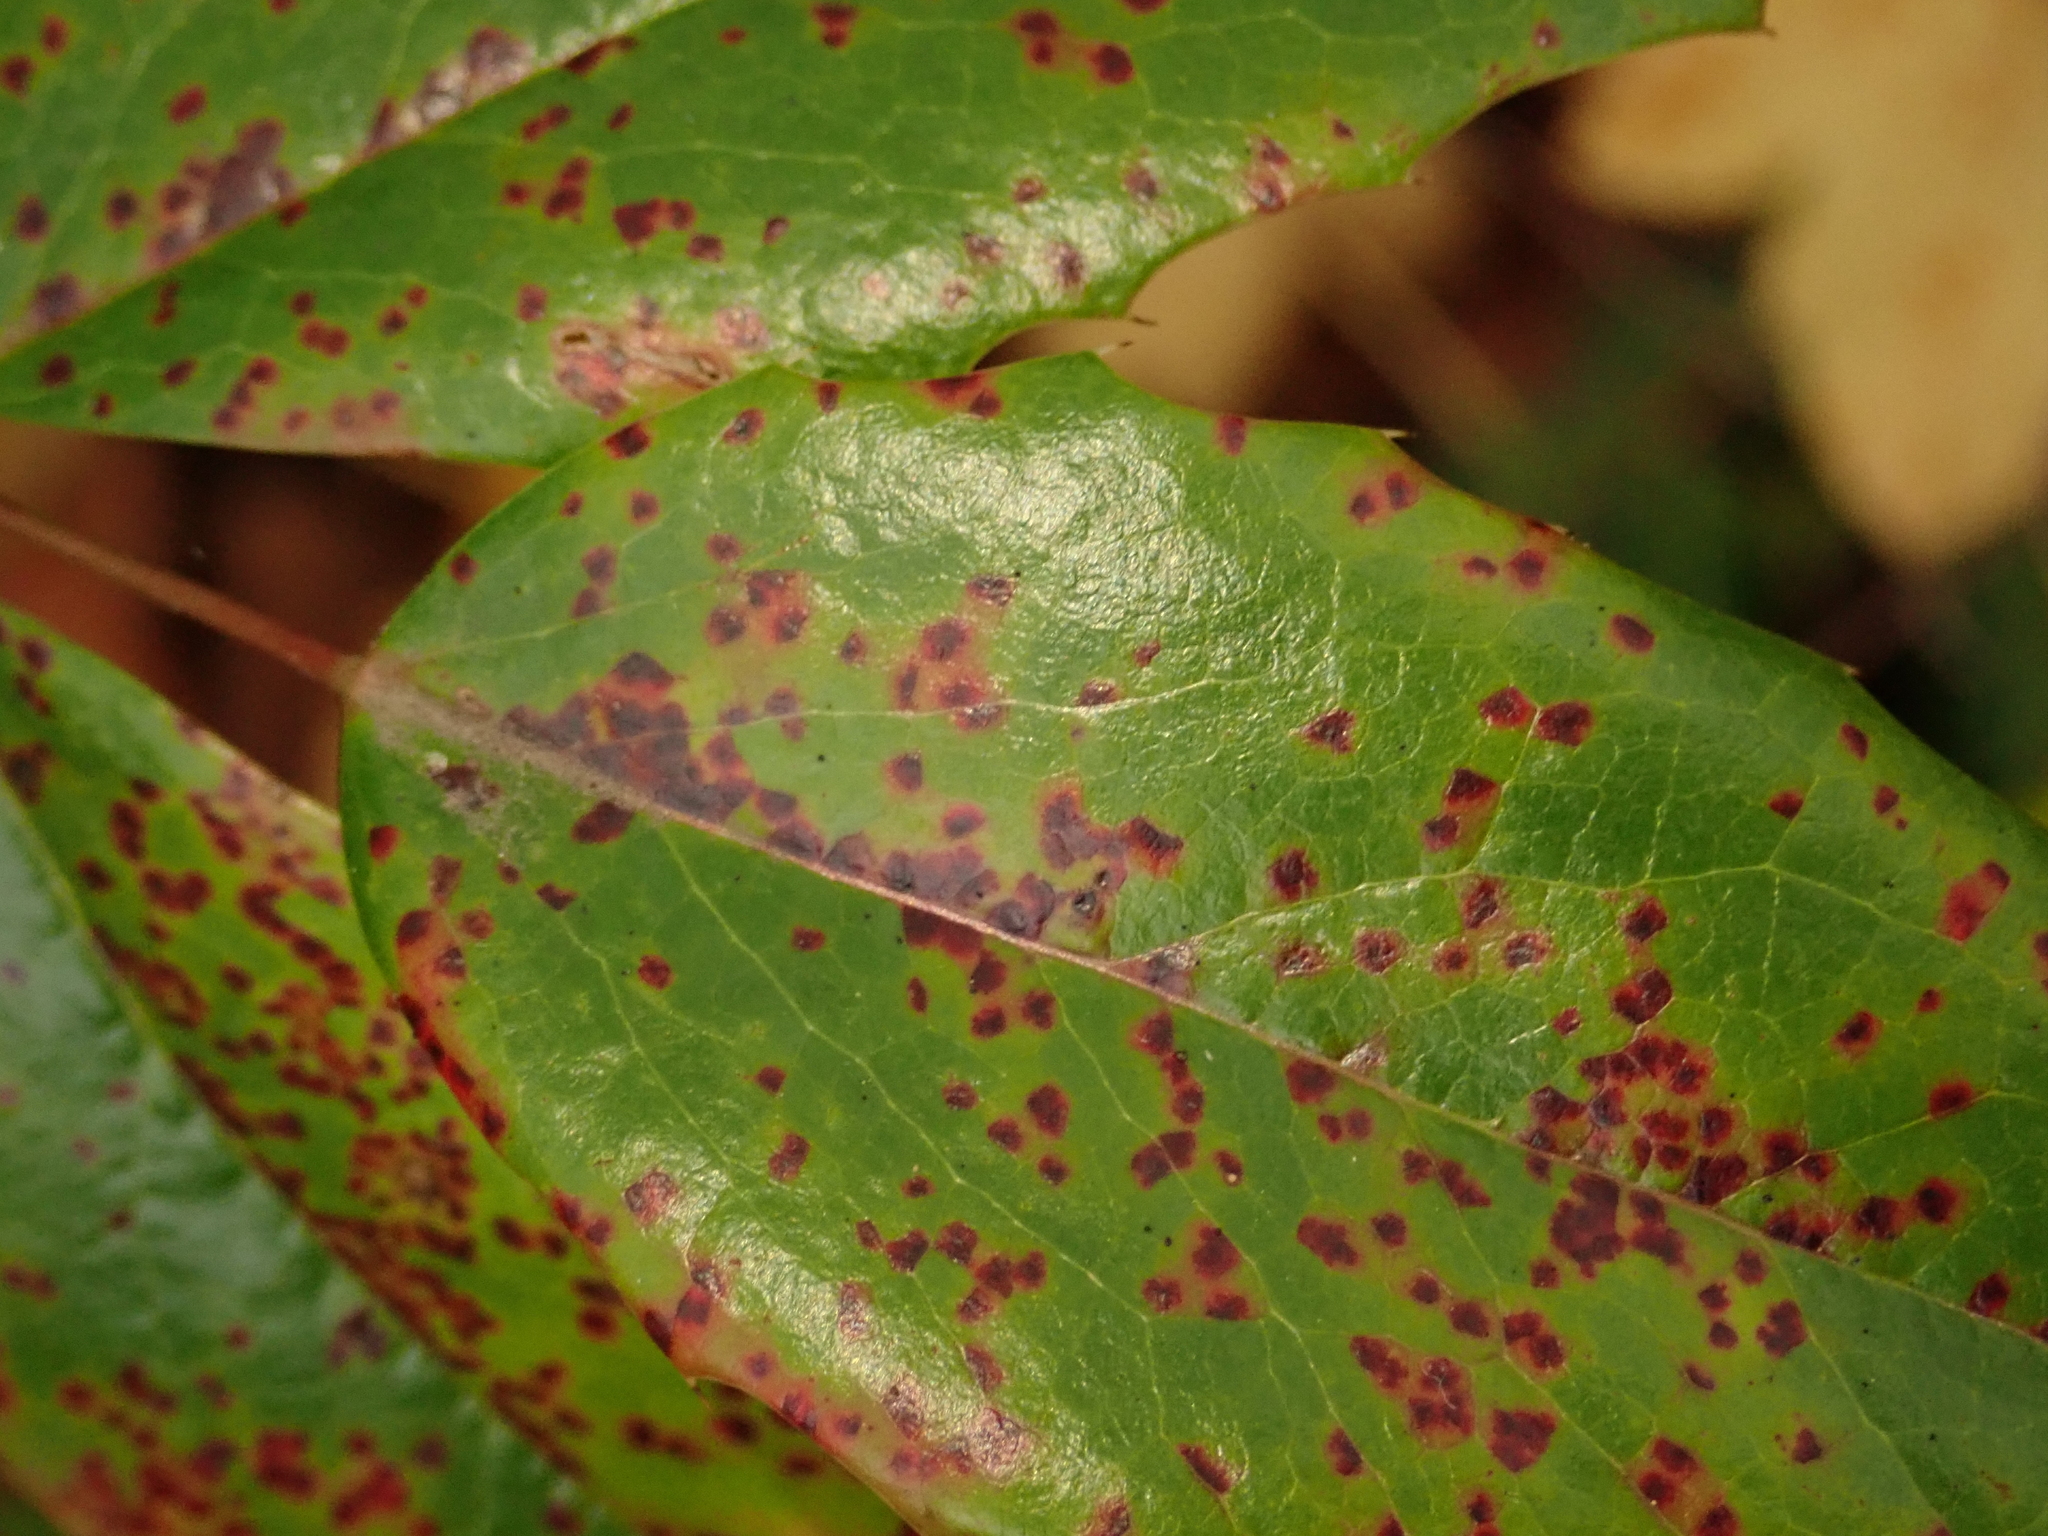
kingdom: Fungi
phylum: Basidiomycota
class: Pucciniomycetes
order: Pucciniales
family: Pucciniaceae
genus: Cumminsiella
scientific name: Cumminsiella mirabilissima
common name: Mahonia rust
